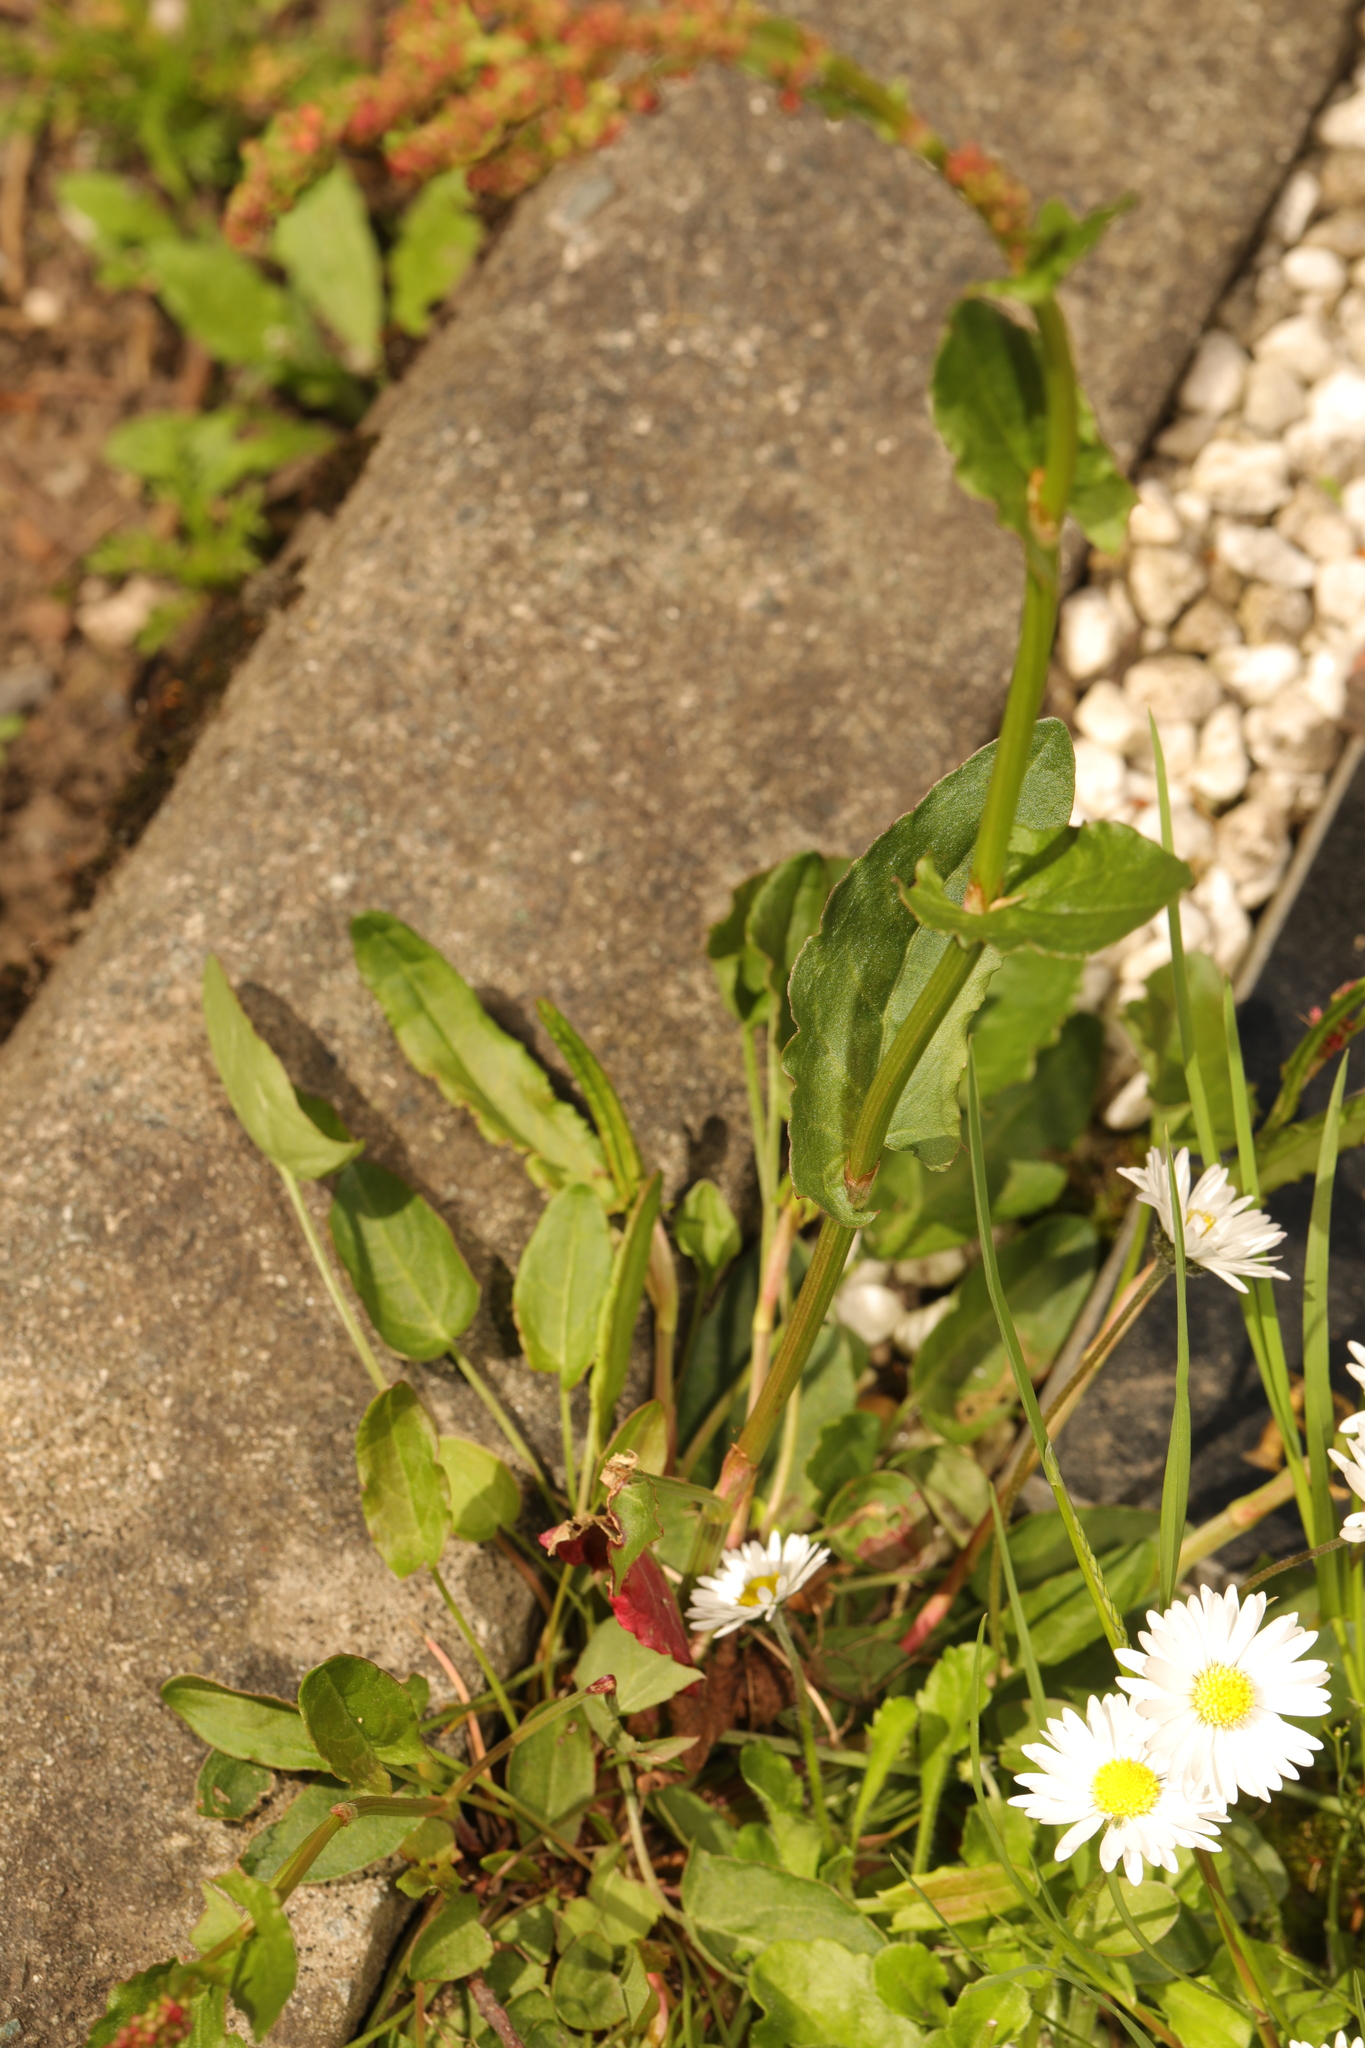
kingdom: Plantae
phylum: Tracheophyta
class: Magnoliopsida
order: Caryophyllales
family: Polygonaceae
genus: Rumex
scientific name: Rumex acetosa
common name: Garden sorrel
